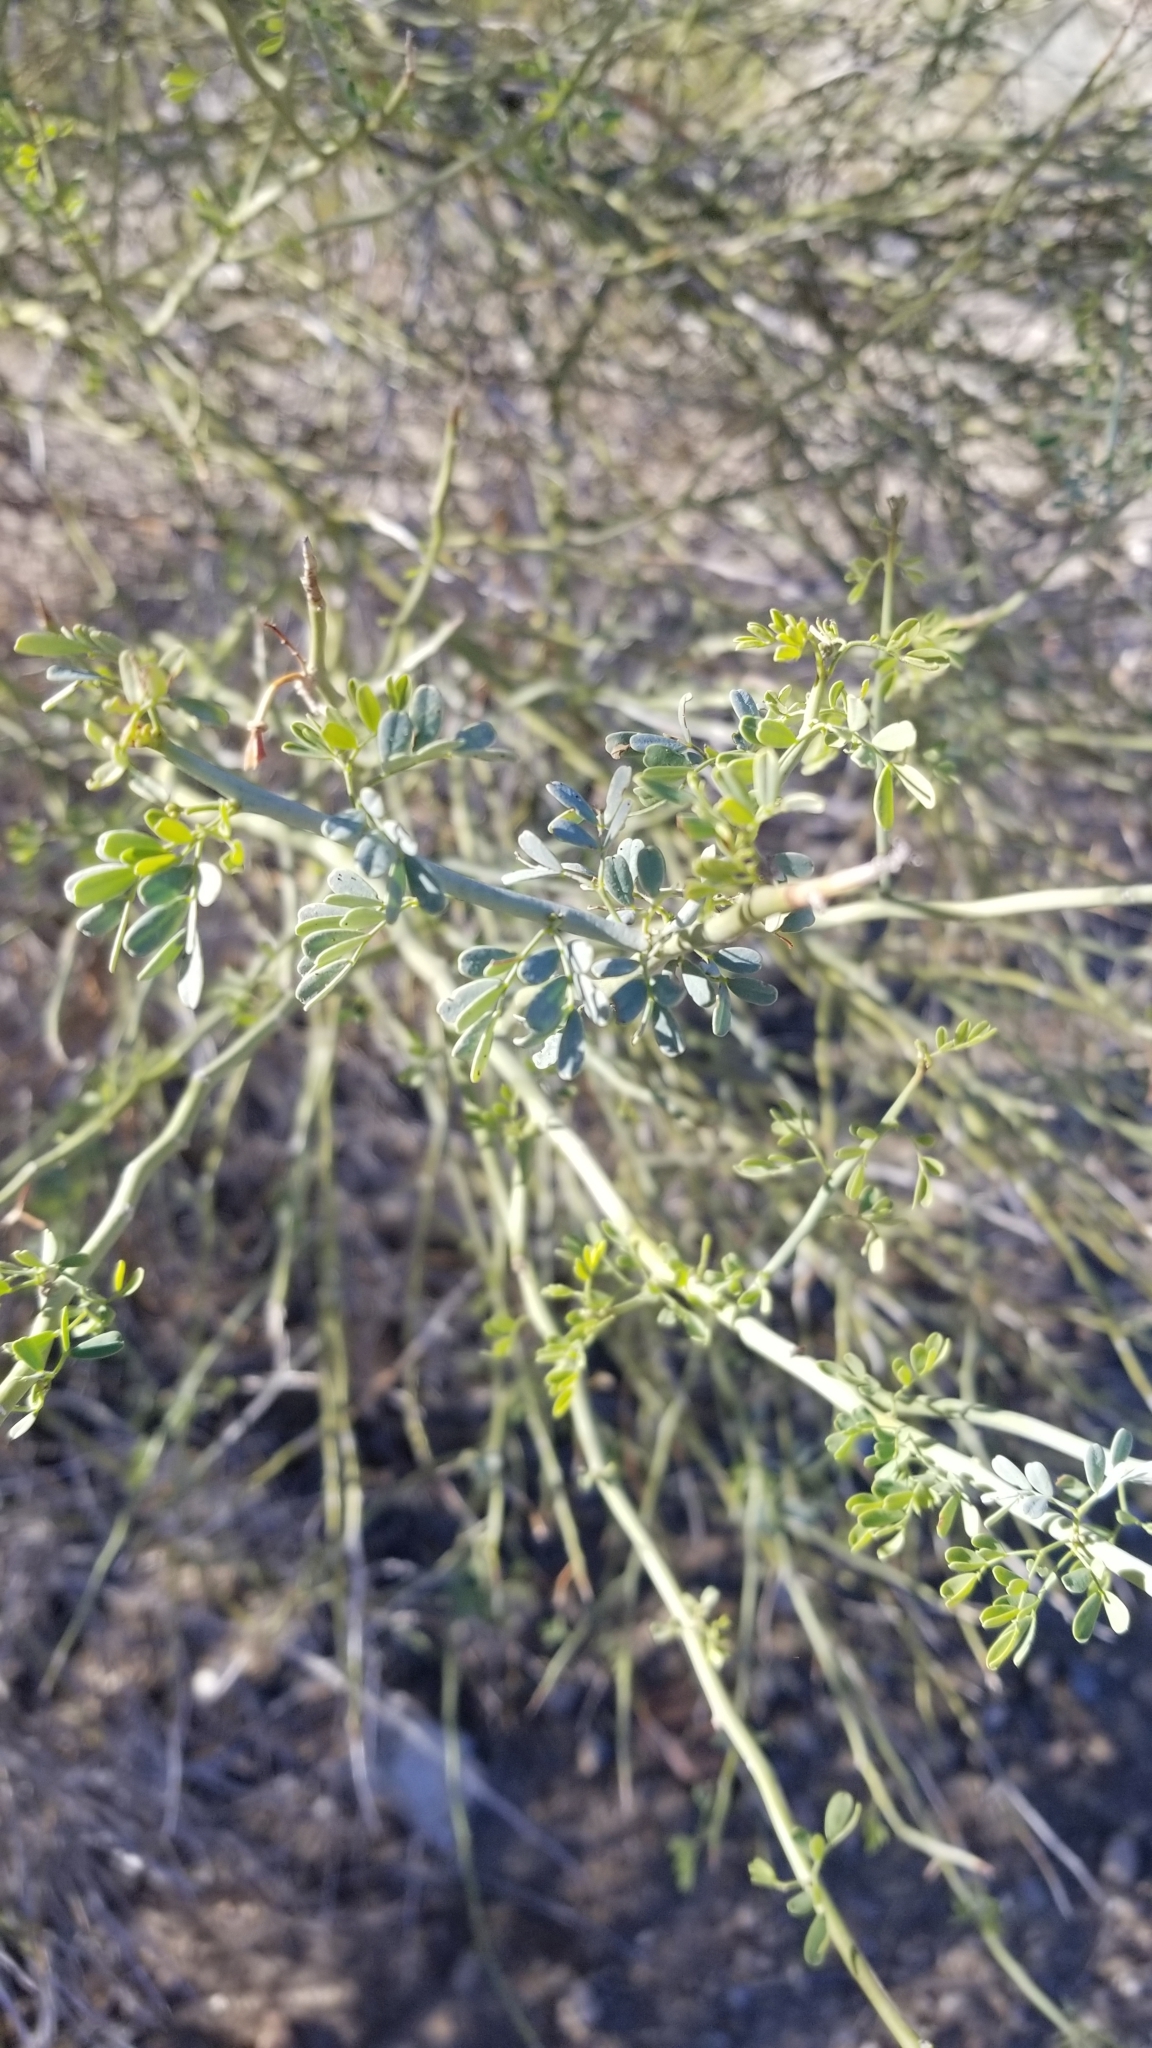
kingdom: Plantae
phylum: Tracheophyta
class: Magnoliopsida
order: Fabales
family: Fabaceae
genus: Parkinsonia
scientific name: Parkinsonia florida
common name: Blue paloverde
